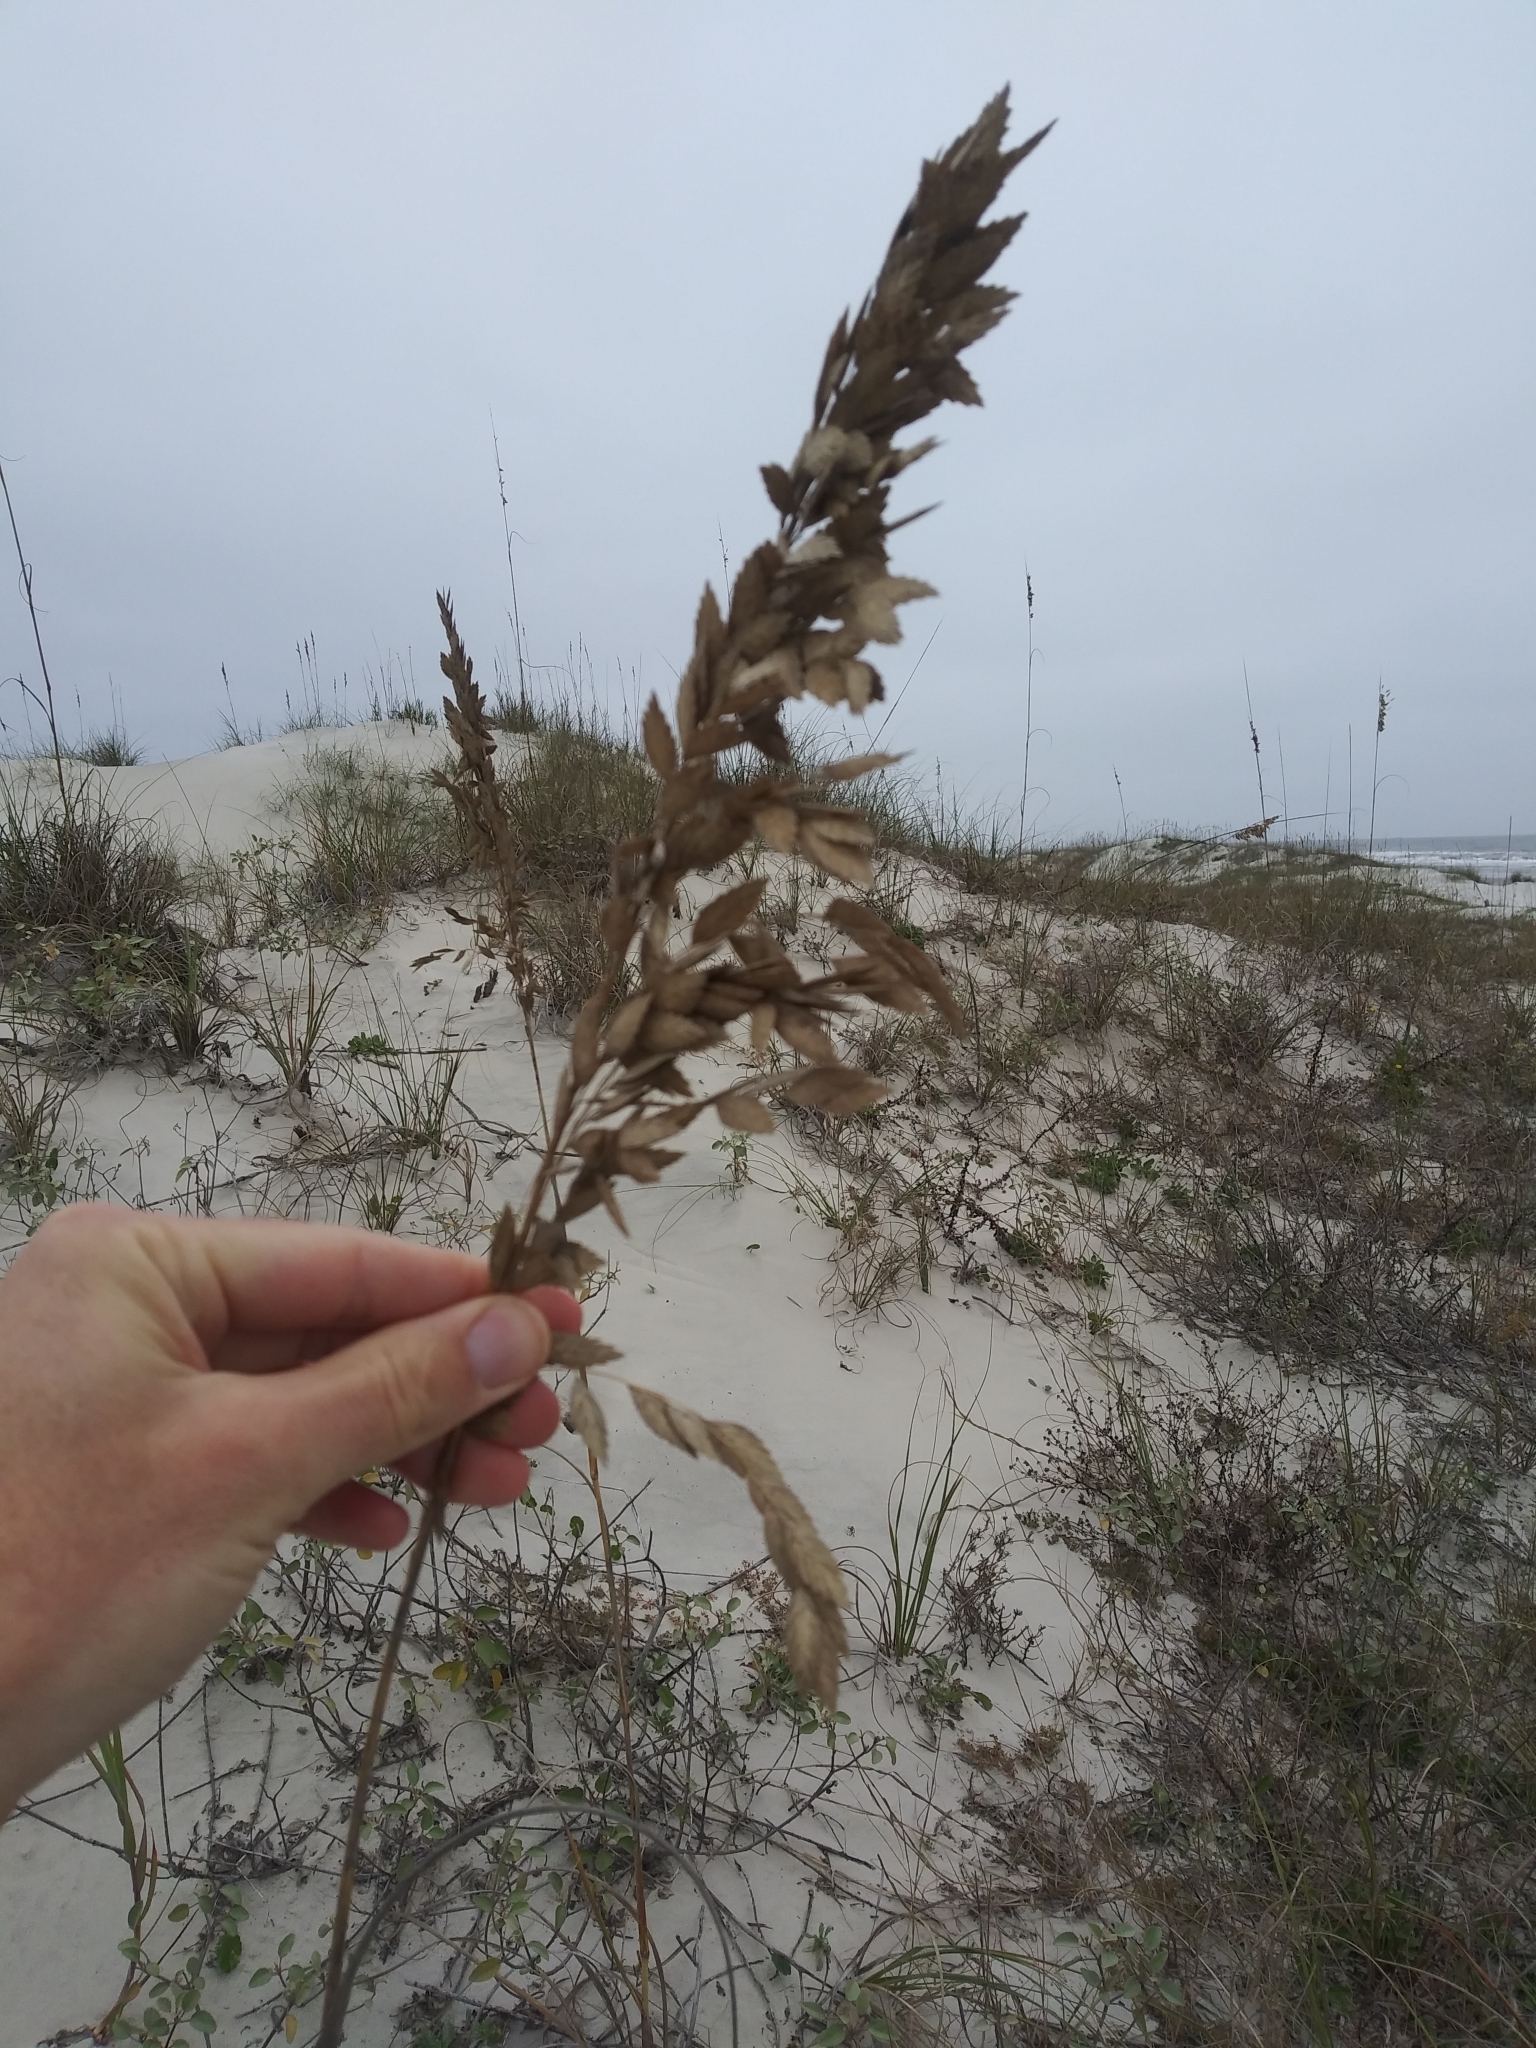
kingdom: Plantae
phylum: Tracheophyta
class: Liliopsida
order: Poales
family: Poaceae
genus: Uniola
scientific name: Uniola paniculata
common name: Seaside-oats
